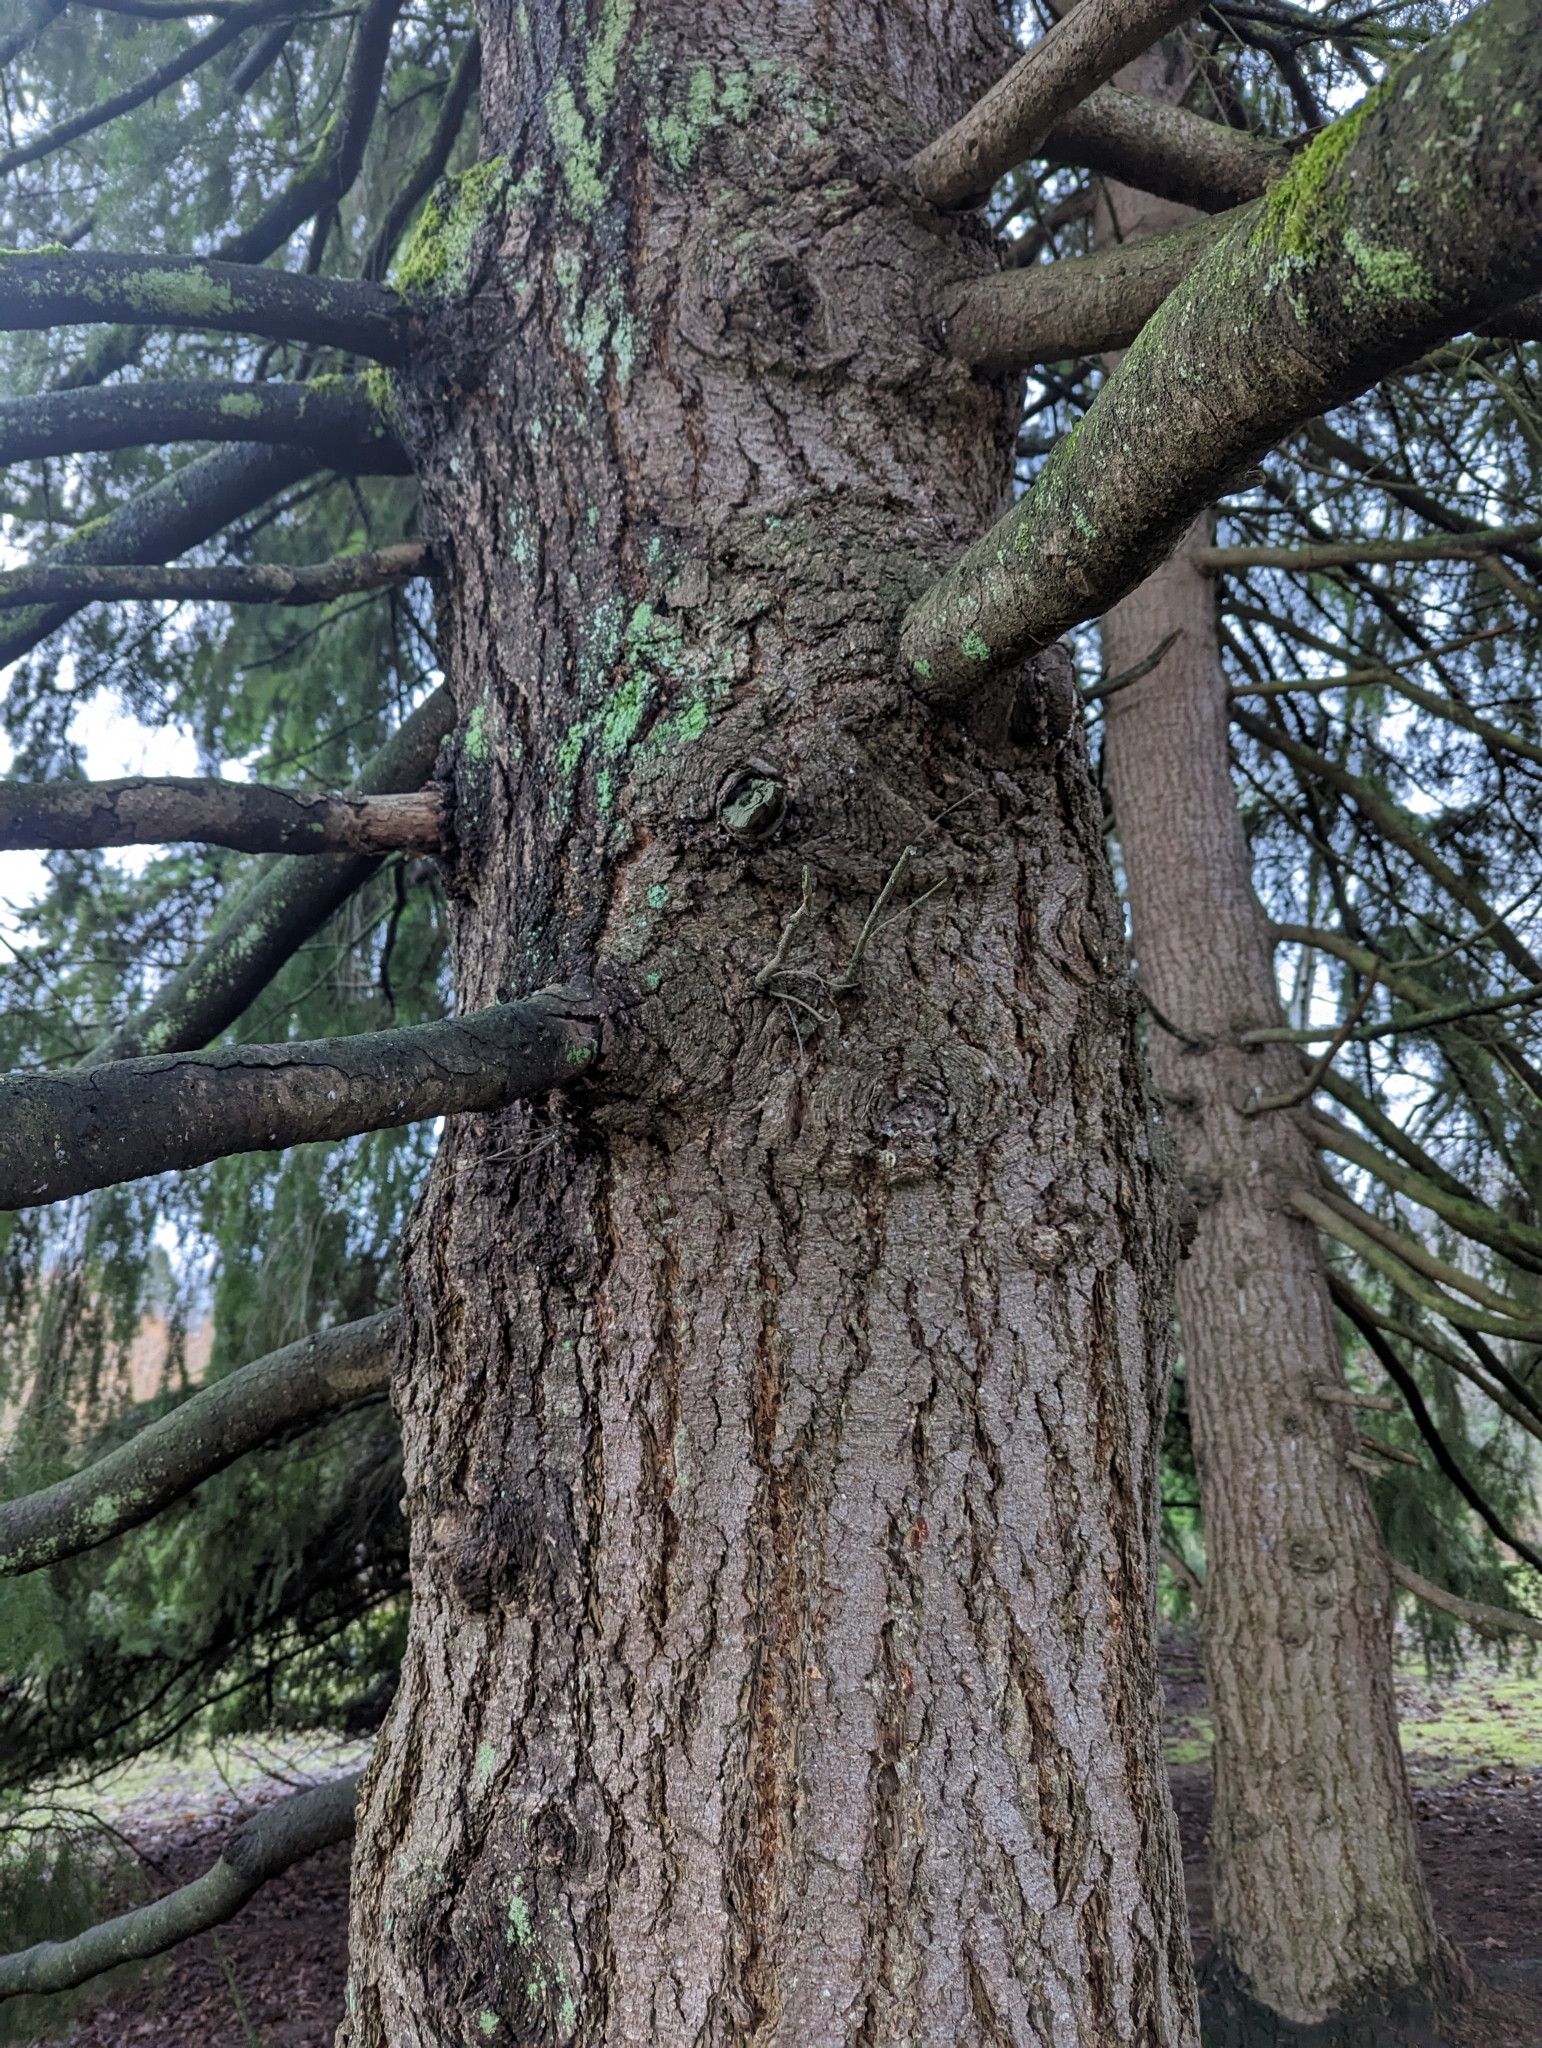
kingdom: Plantae
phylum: Tracheophyta
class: Pinopsida
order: Pinales
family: Pinaceae
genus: Pseudotsuga
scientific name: Pseudotsuga menziesii
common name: Douglas fir
